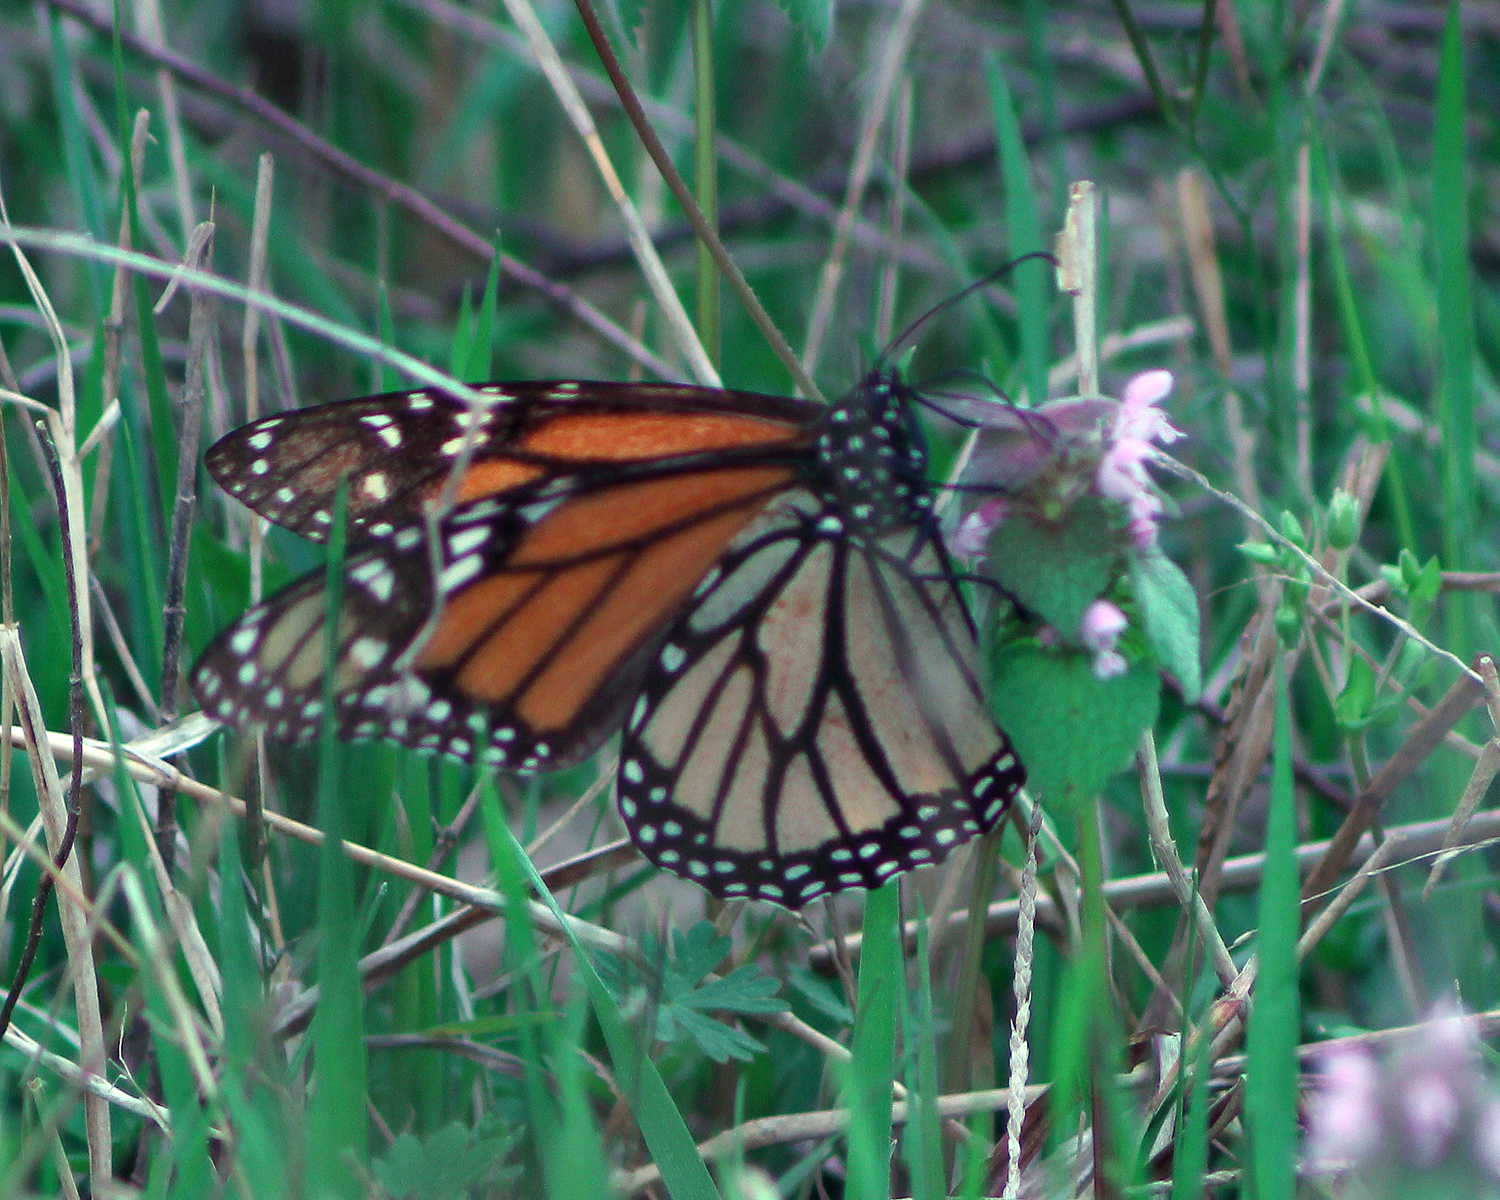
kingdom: Animalia
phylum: Arthropoda
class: Insecta
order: Lepidoptera
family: Nymphalidae
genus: Danaus
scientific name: Danaus plexippus
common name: Monarch
